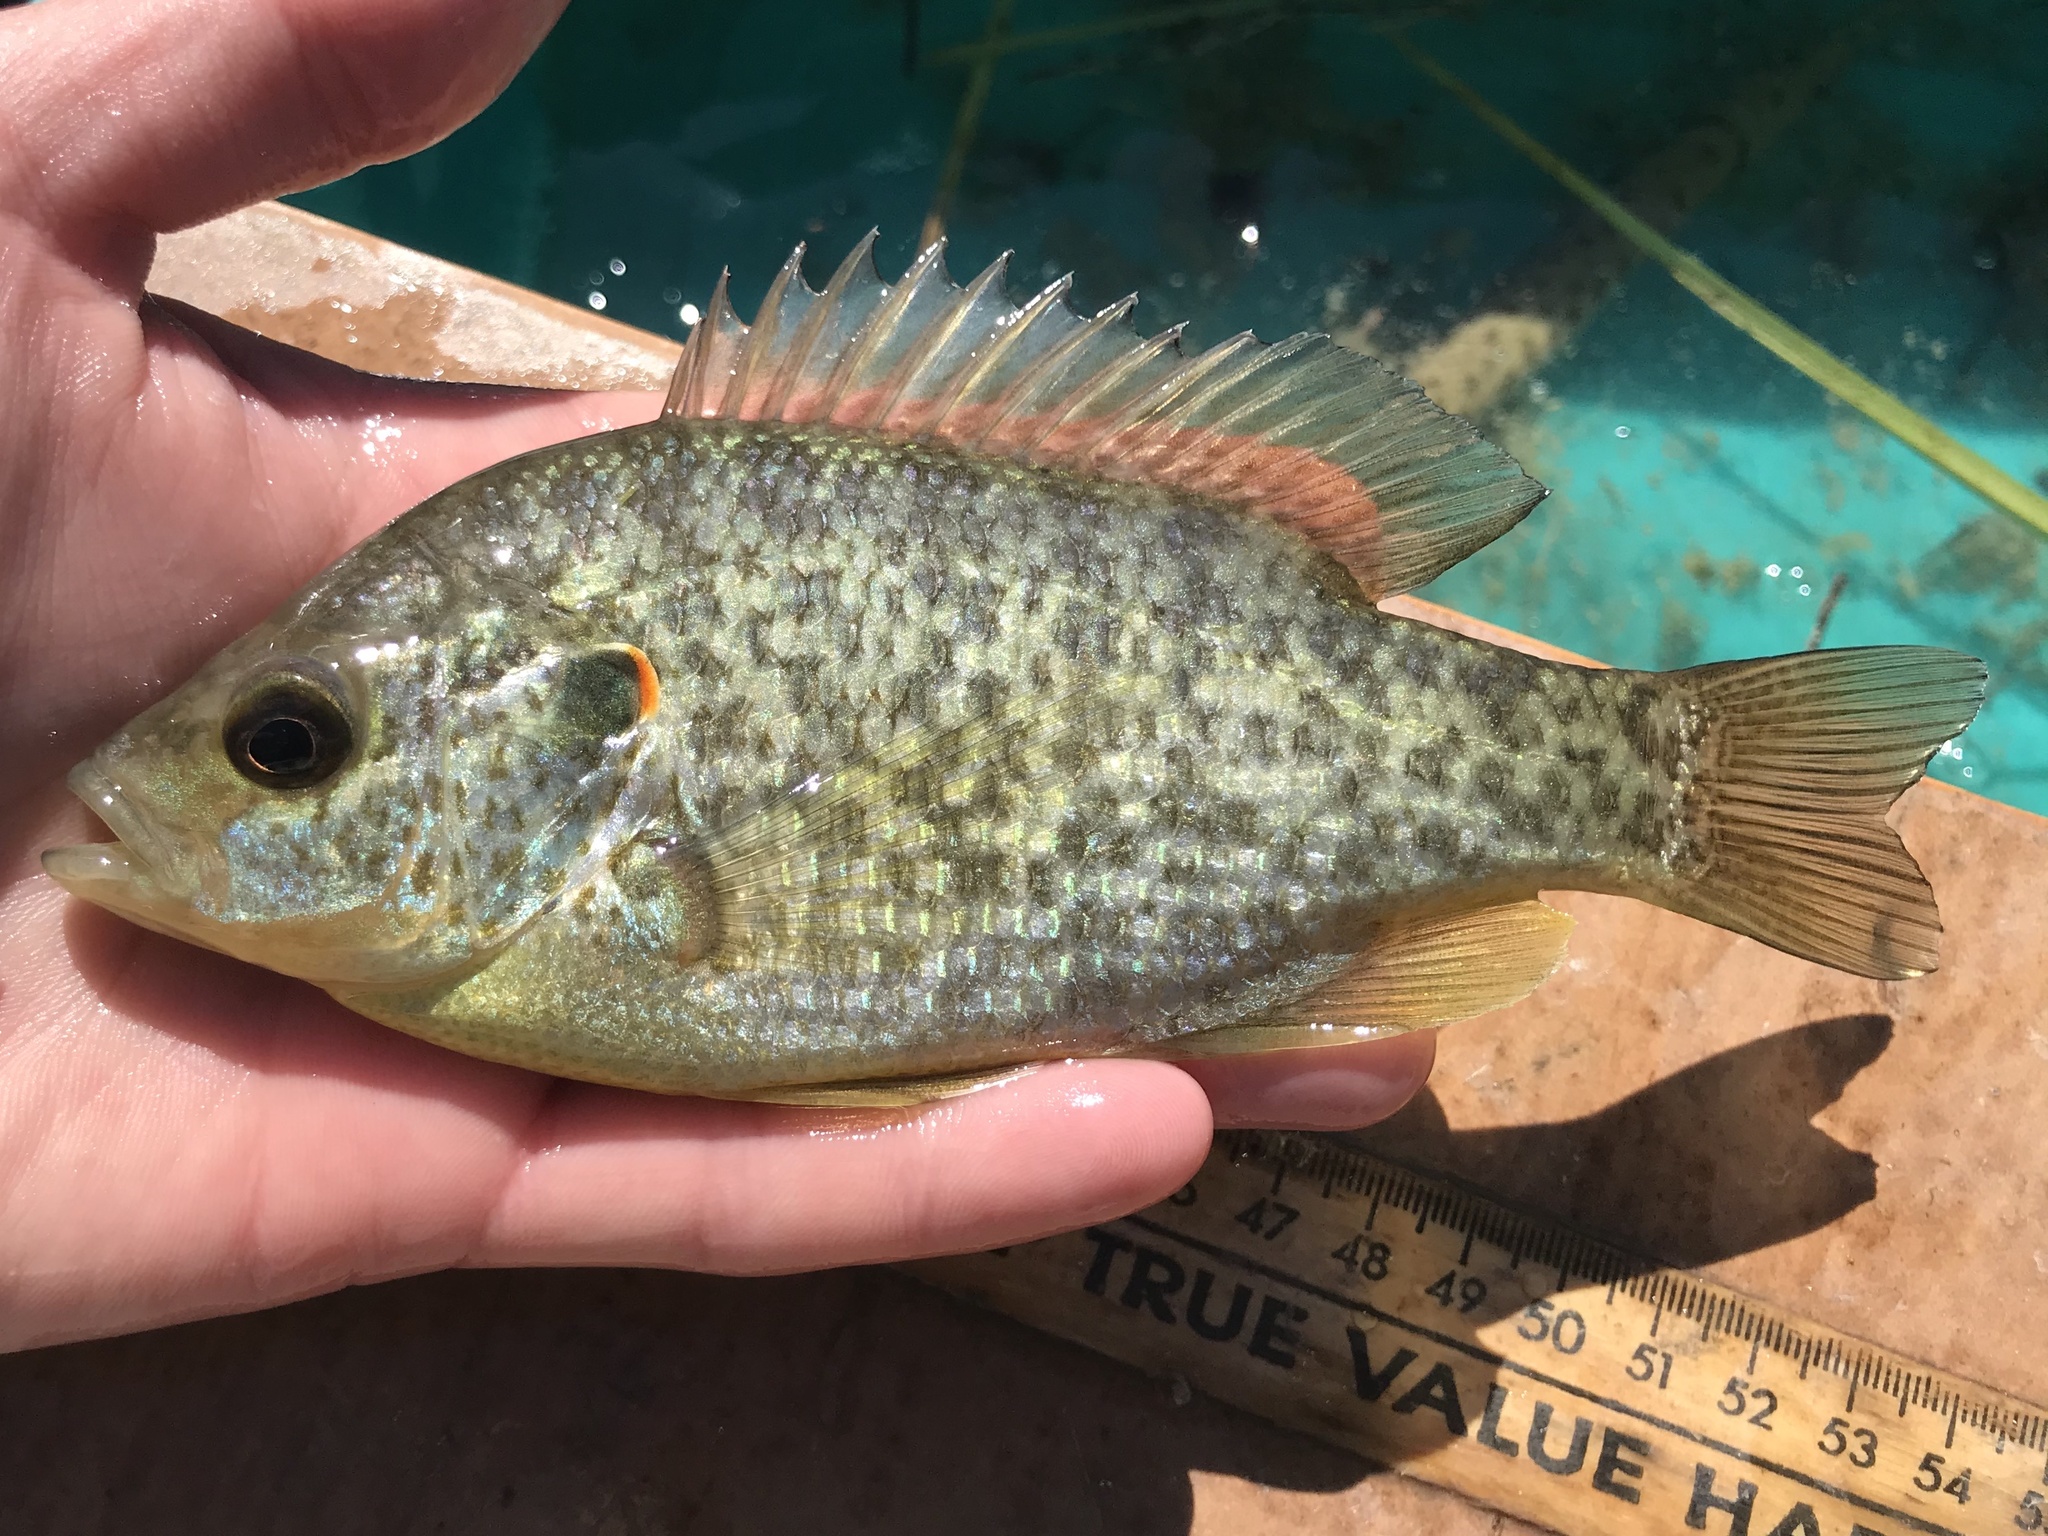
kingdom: Animalia
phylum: Chordata
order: Perciformes
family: Centrarchidae
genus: Lepomis
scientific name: Lepomis microlophus
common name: Redear sunfish
